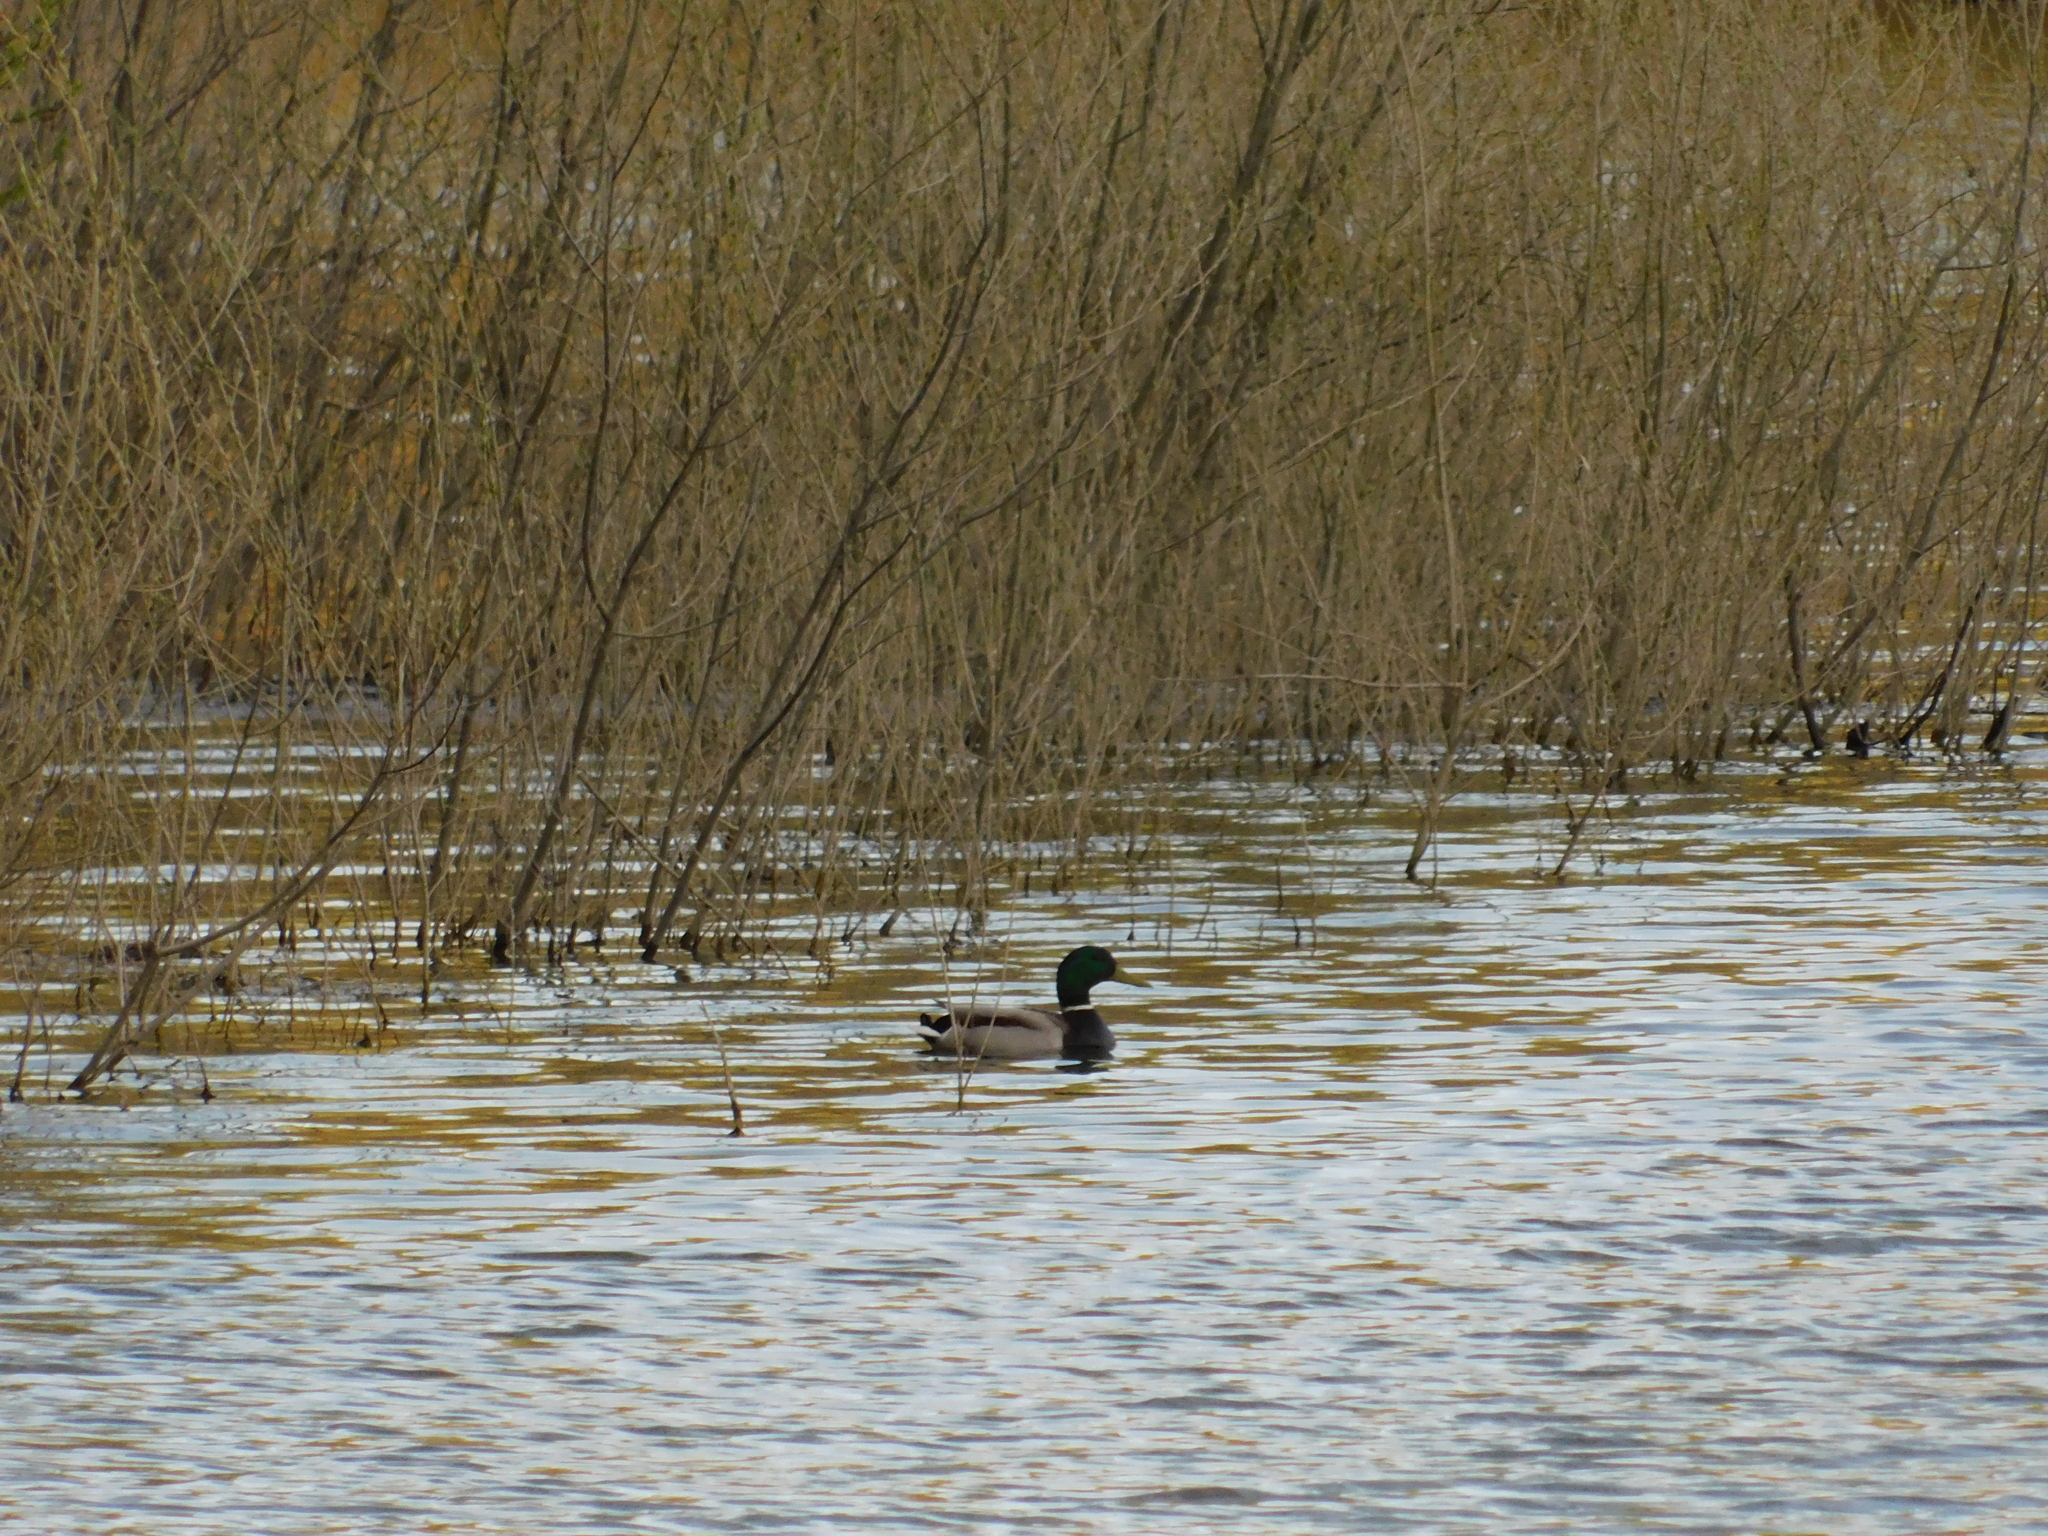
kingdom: Animalia
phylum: Chordata
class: Aves
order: Anseriformes
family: Anatidae
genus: Anas
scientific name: Anas platyrhynchos
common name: Mallard
